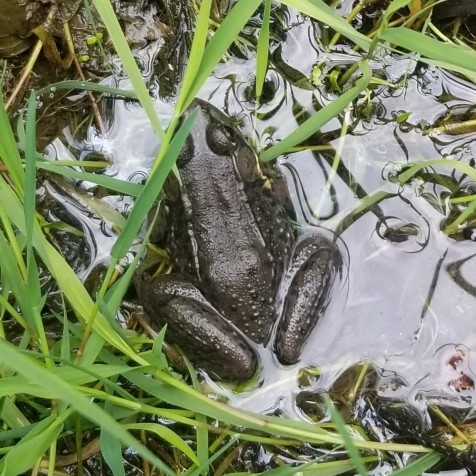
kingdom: Animalia
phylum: Chordata
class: Amphibia
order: Anura
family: Ranidae
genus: Lithobates
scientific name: Lithobates clamitans
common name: Green frog
